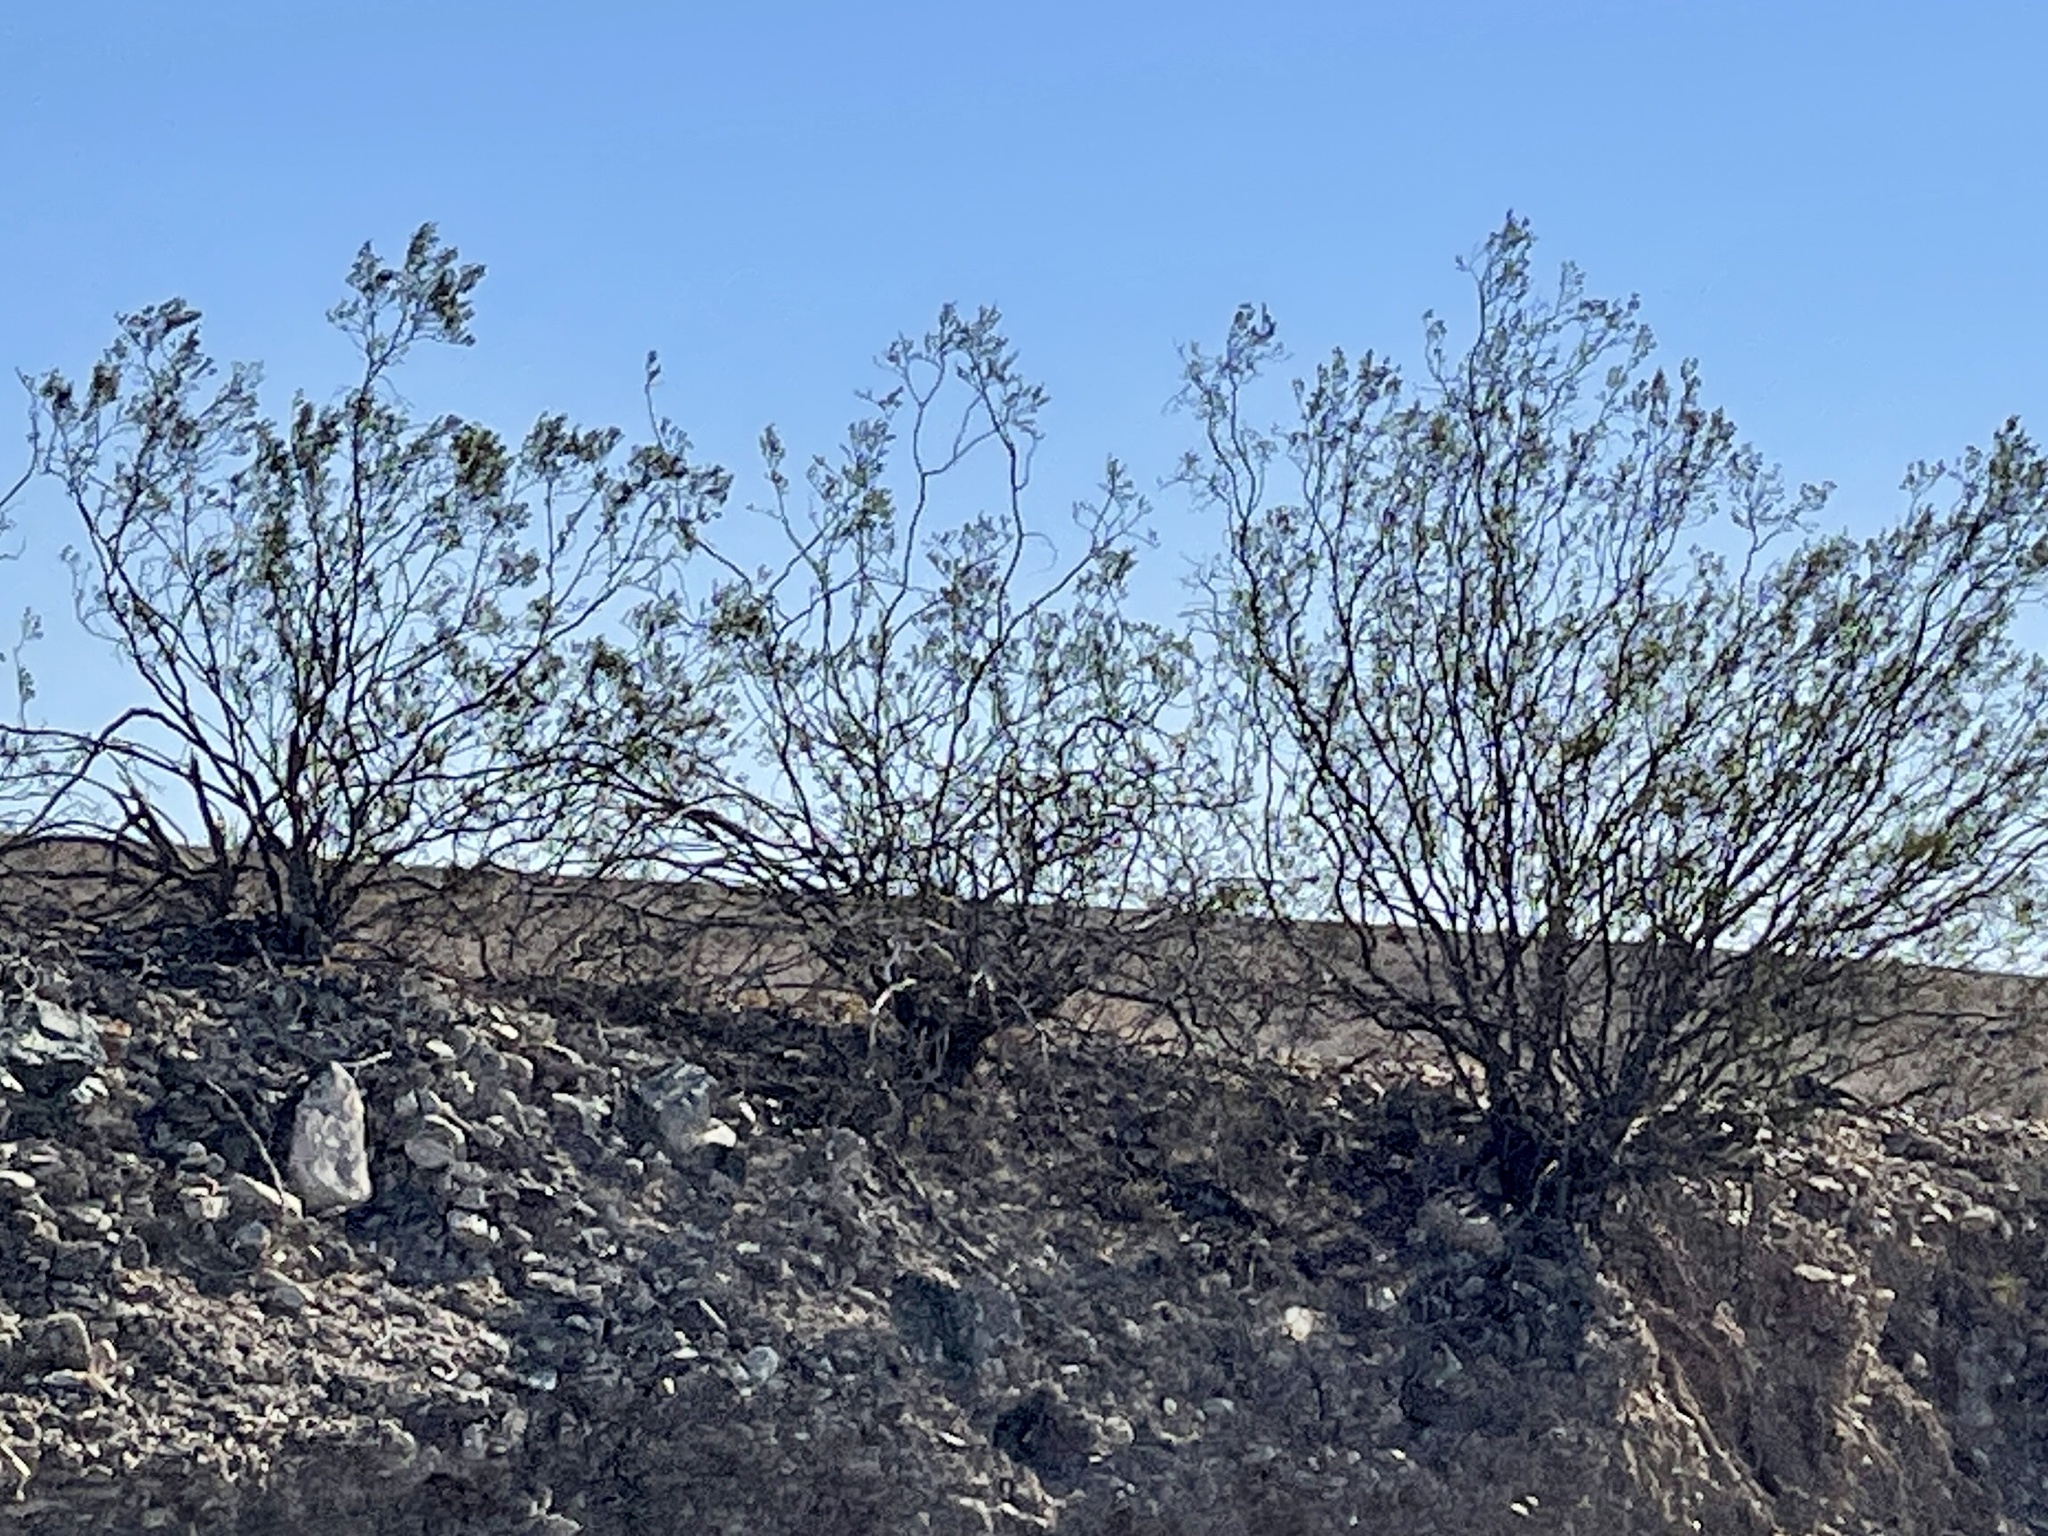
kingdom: Plantae
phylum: Tracheophyta
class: Magnoliopsida
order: Zygophyllales
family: Zygophyllaceae
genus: Larrea
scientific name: Larrea tridentata
